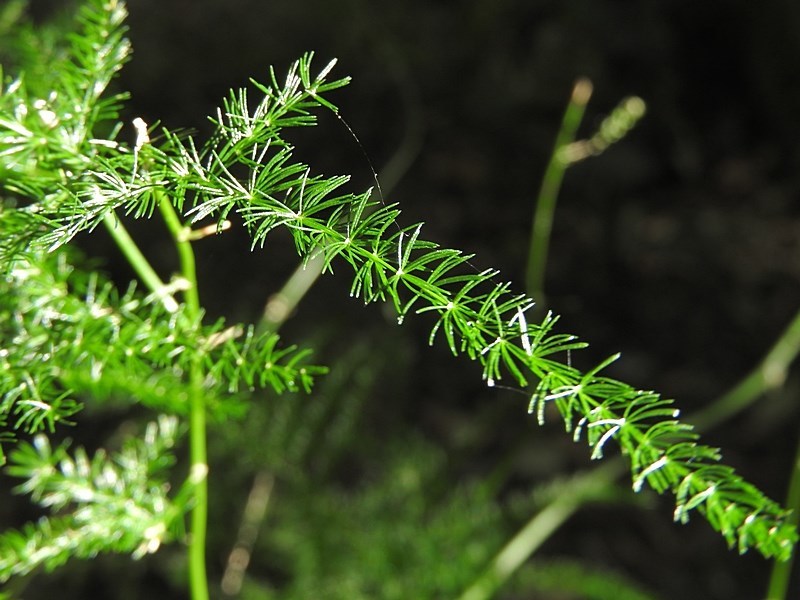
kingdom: Plantae
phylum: Tracheophyta
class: Liliopsida
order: Asparagales
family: Asparagaceae
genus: Asparagus
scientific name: Asparagus setaceus
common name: Common asparagus fern
